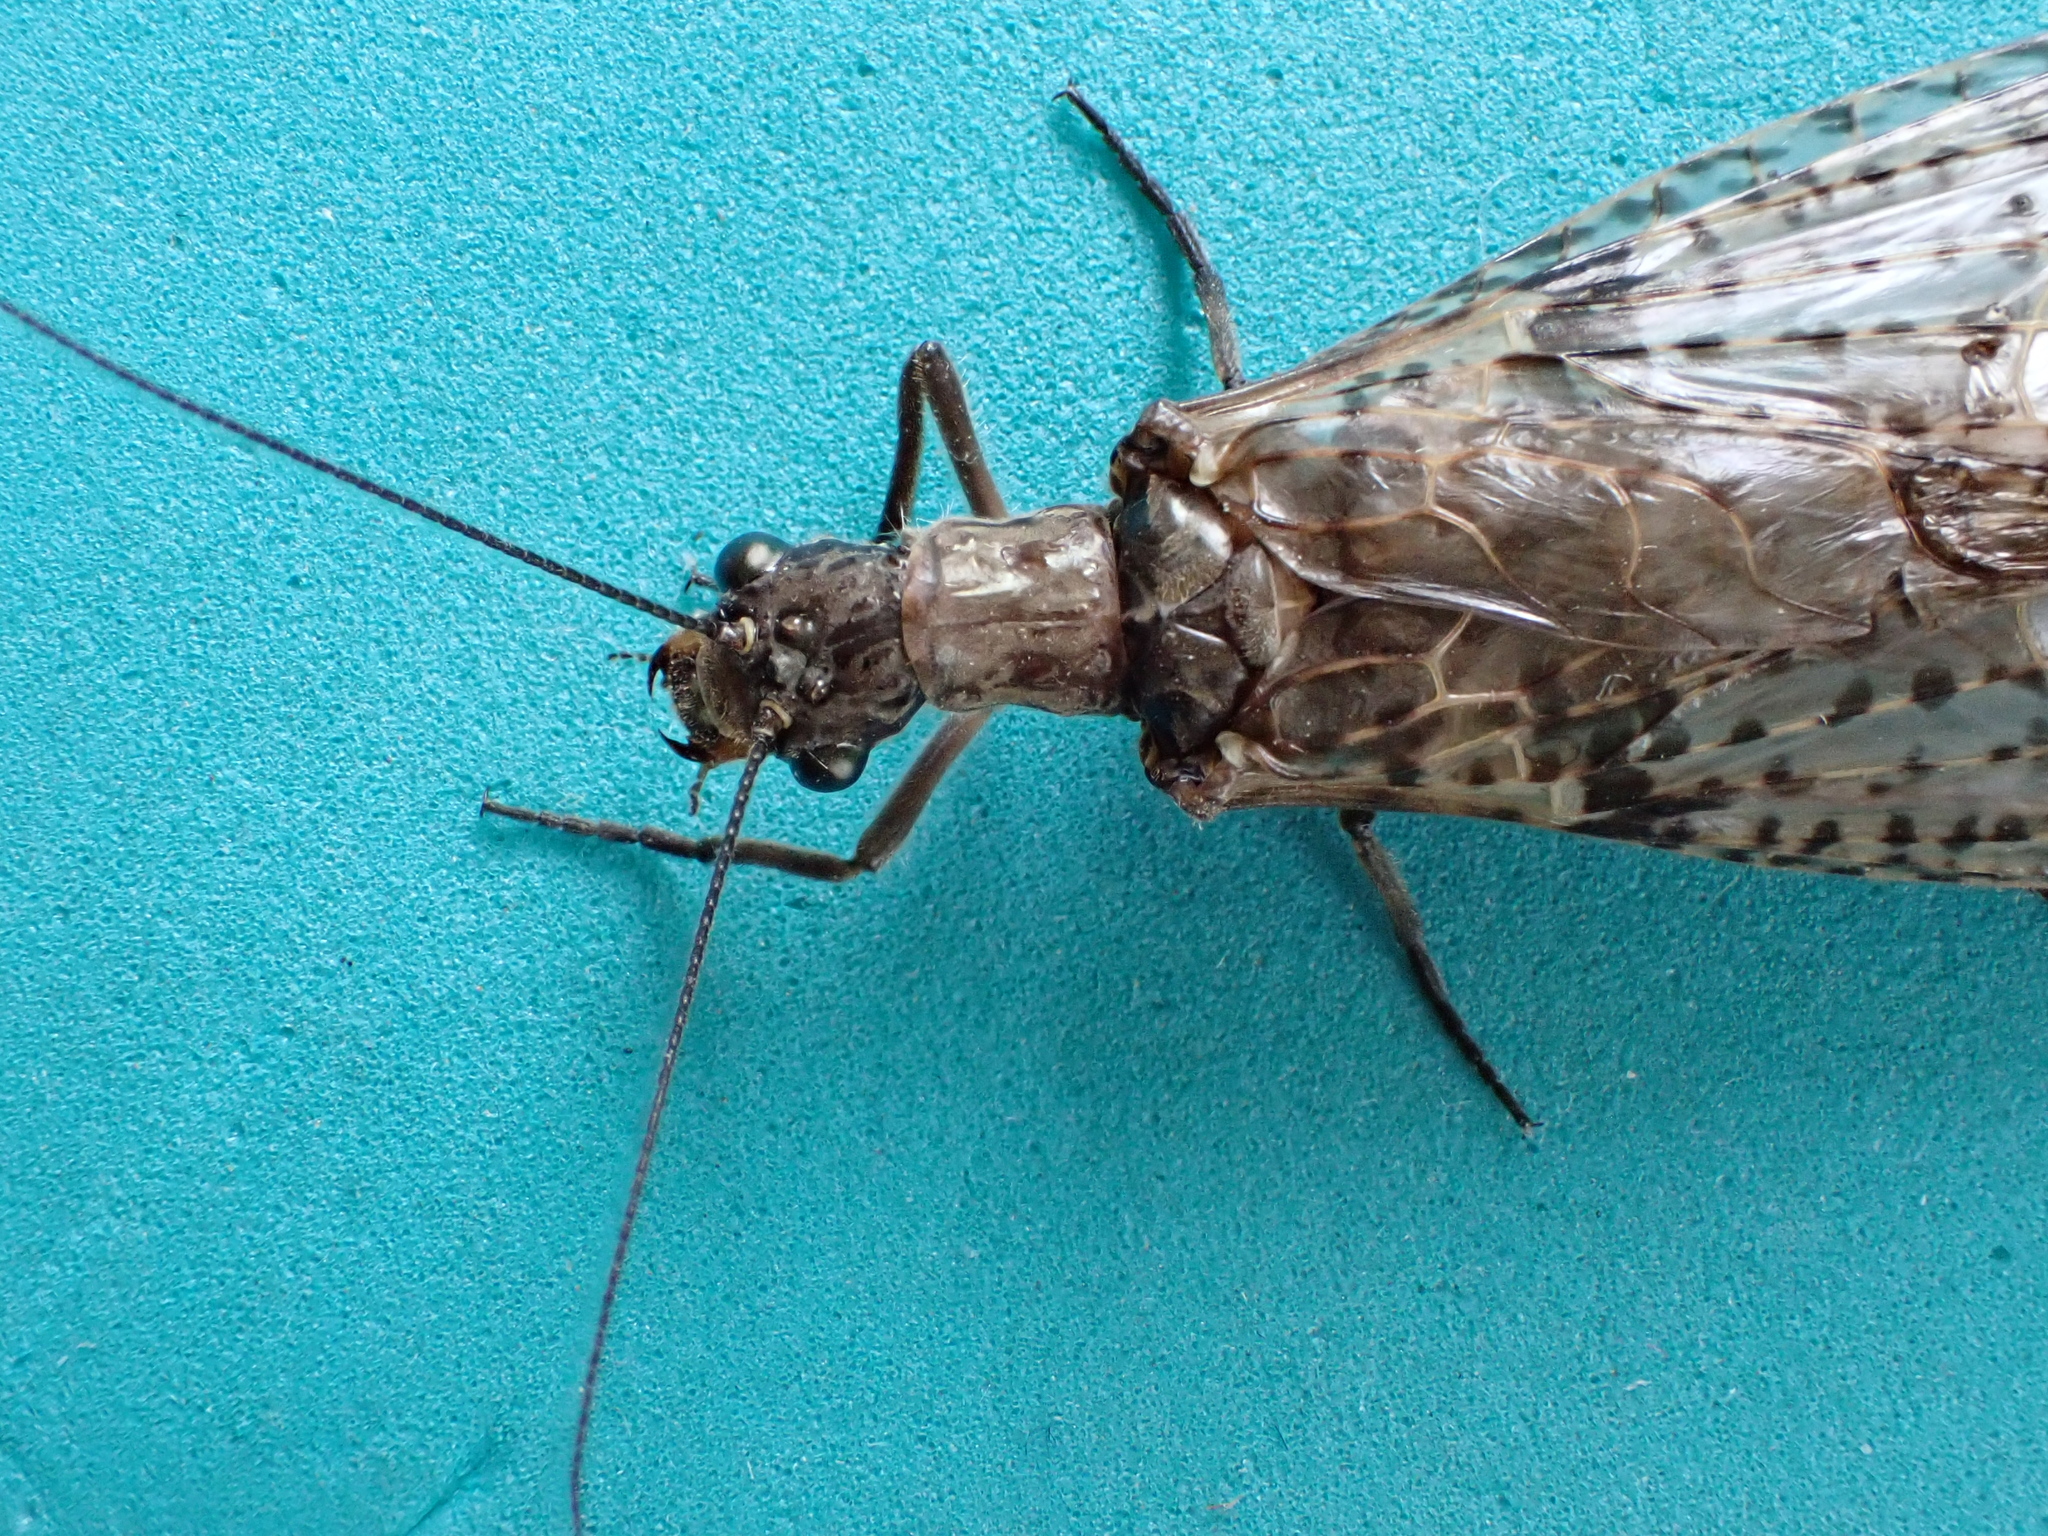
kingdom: Animalia
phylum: Arthropoda
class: Insecta
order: Megaloptera
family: Corydalidae
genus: Archichauliodes
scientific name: Archichauliodes diversus
